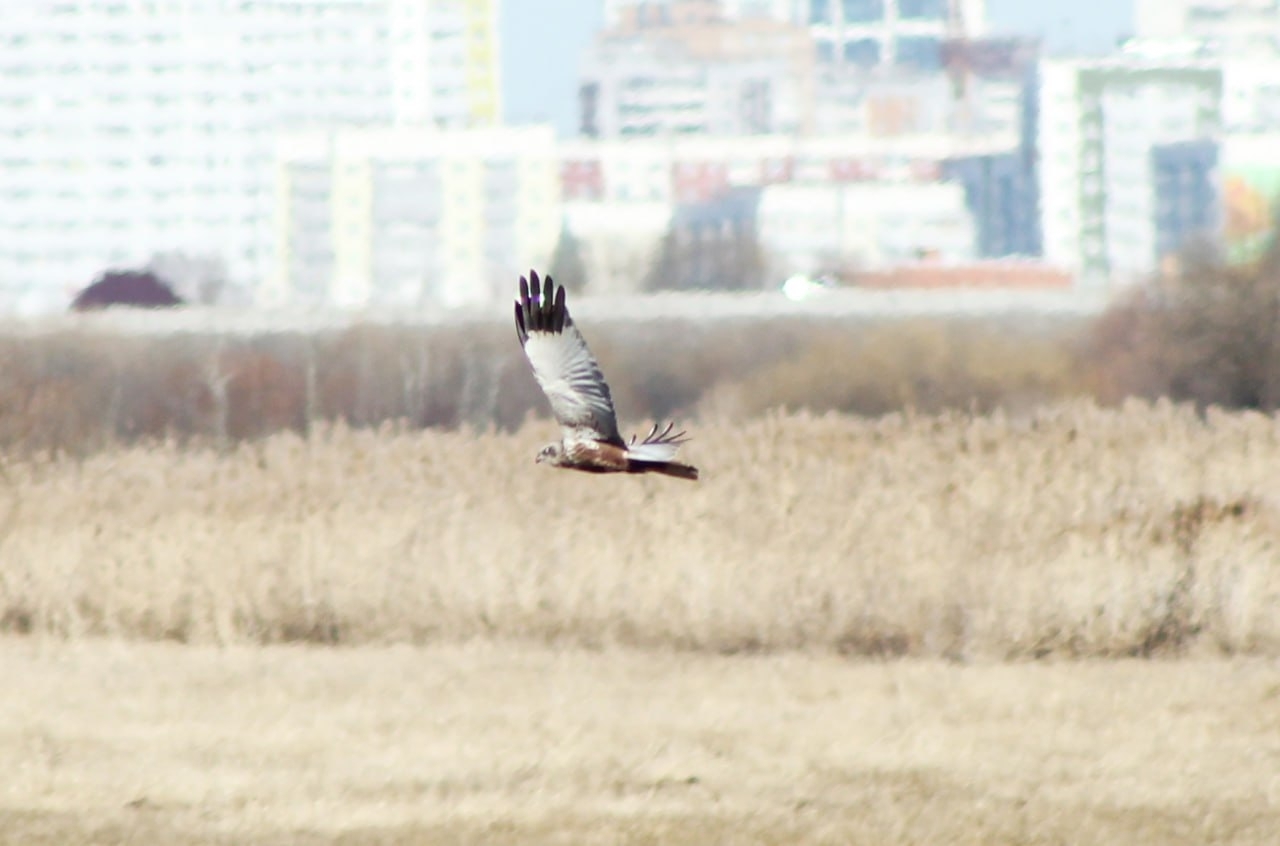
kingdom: Animalia
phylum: Chordata
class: Aves
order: Accipitriformes
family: Accipitridae
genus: Circus
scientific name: Circus aeruginosus
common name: Western marsh harrier
